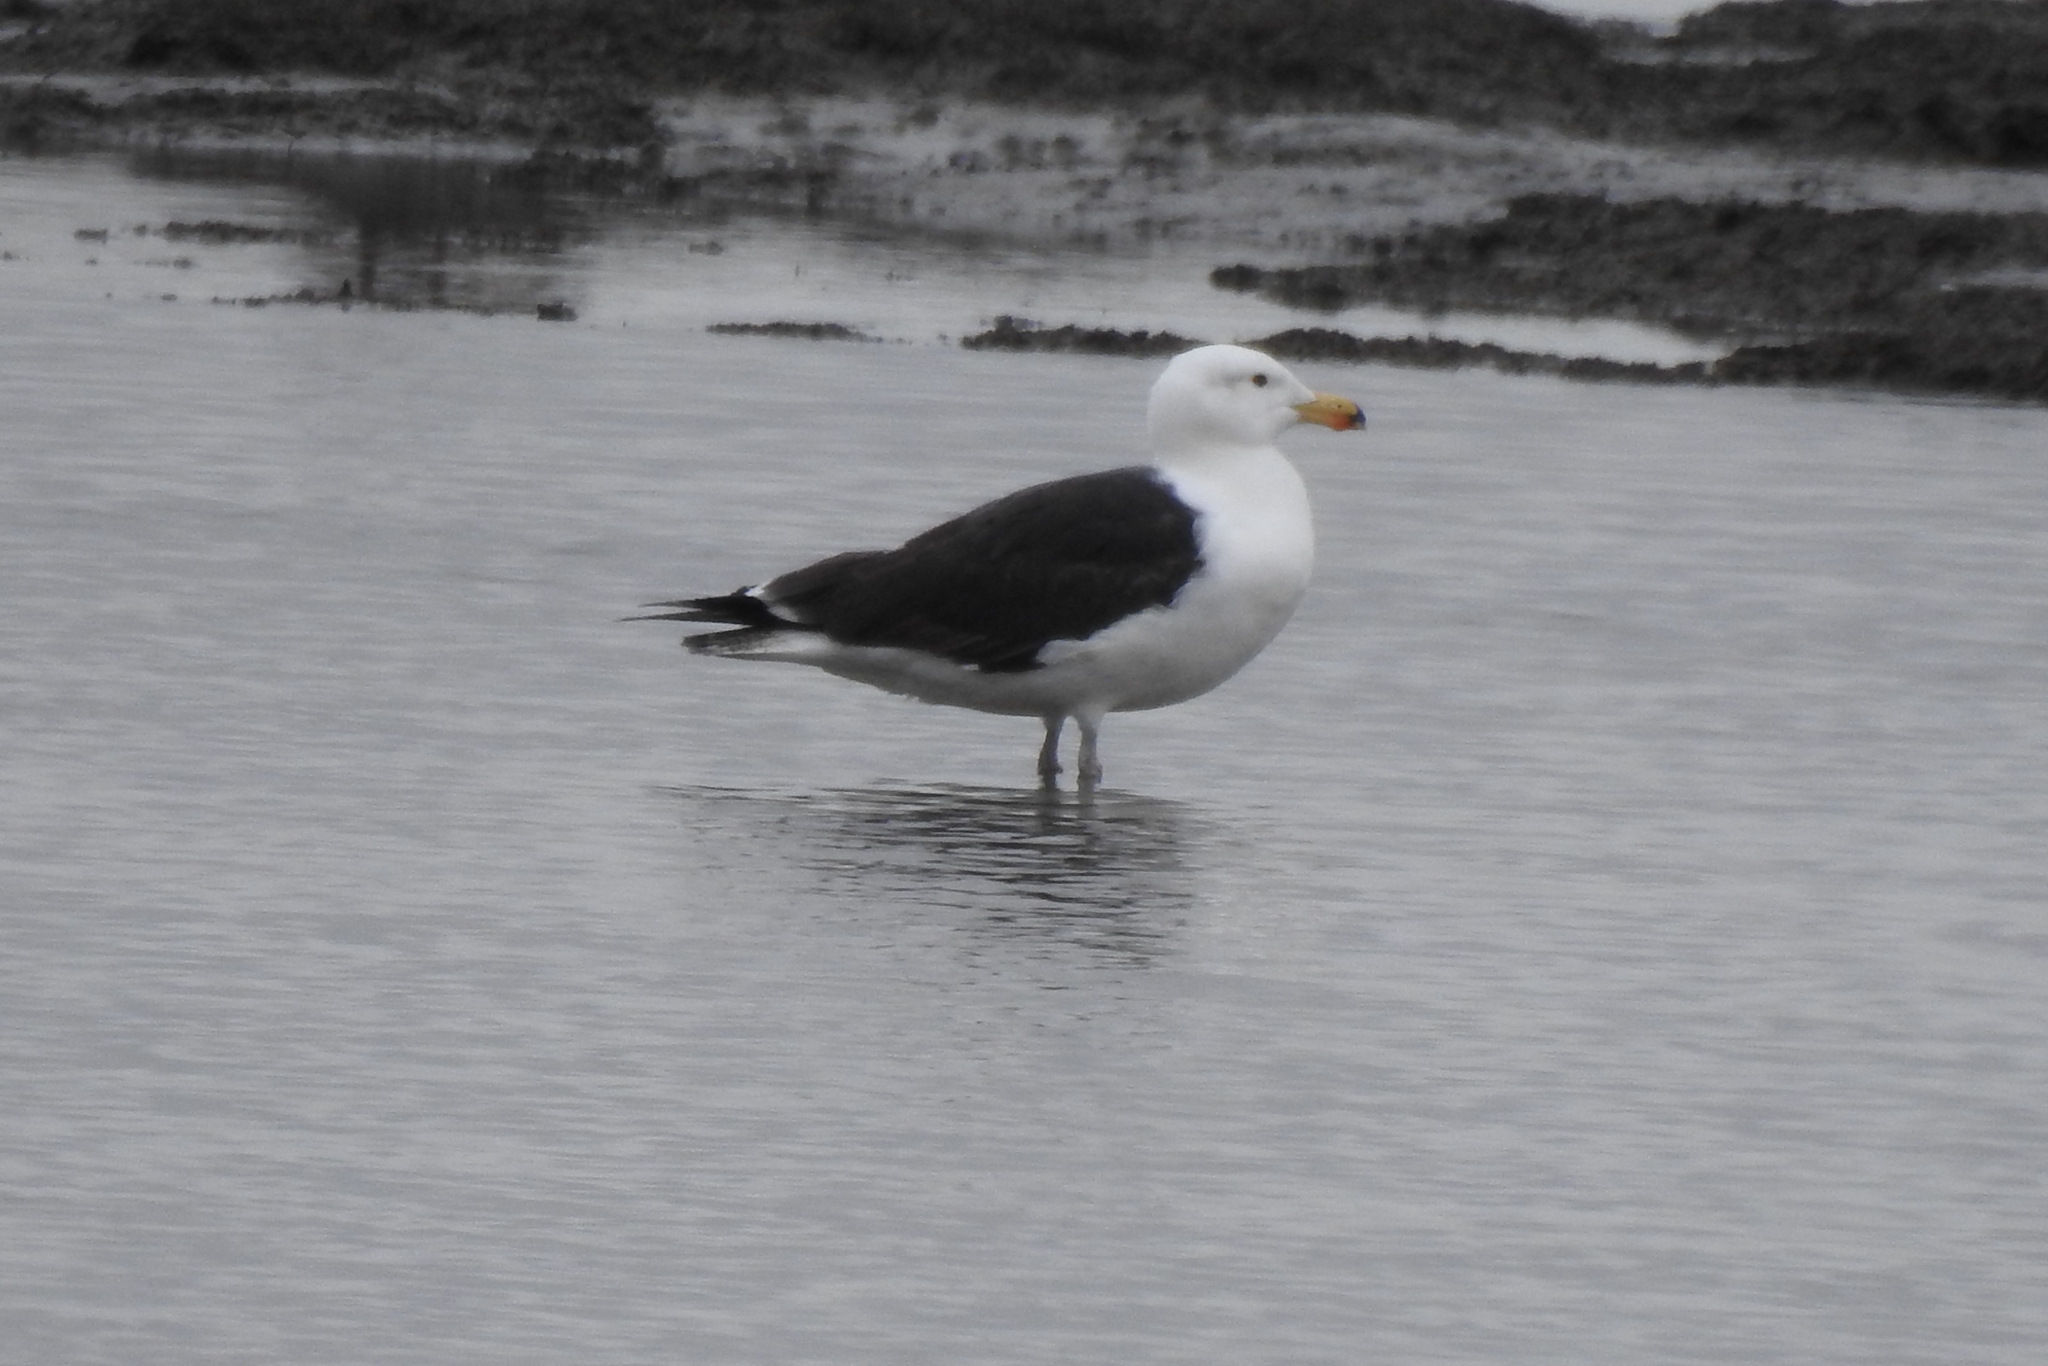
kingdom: Animalia
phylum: Chordata
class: Aves
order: Charadriiformes
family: Laridae
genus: Larus
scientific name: Larus marinus
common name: Great black-backed gull
